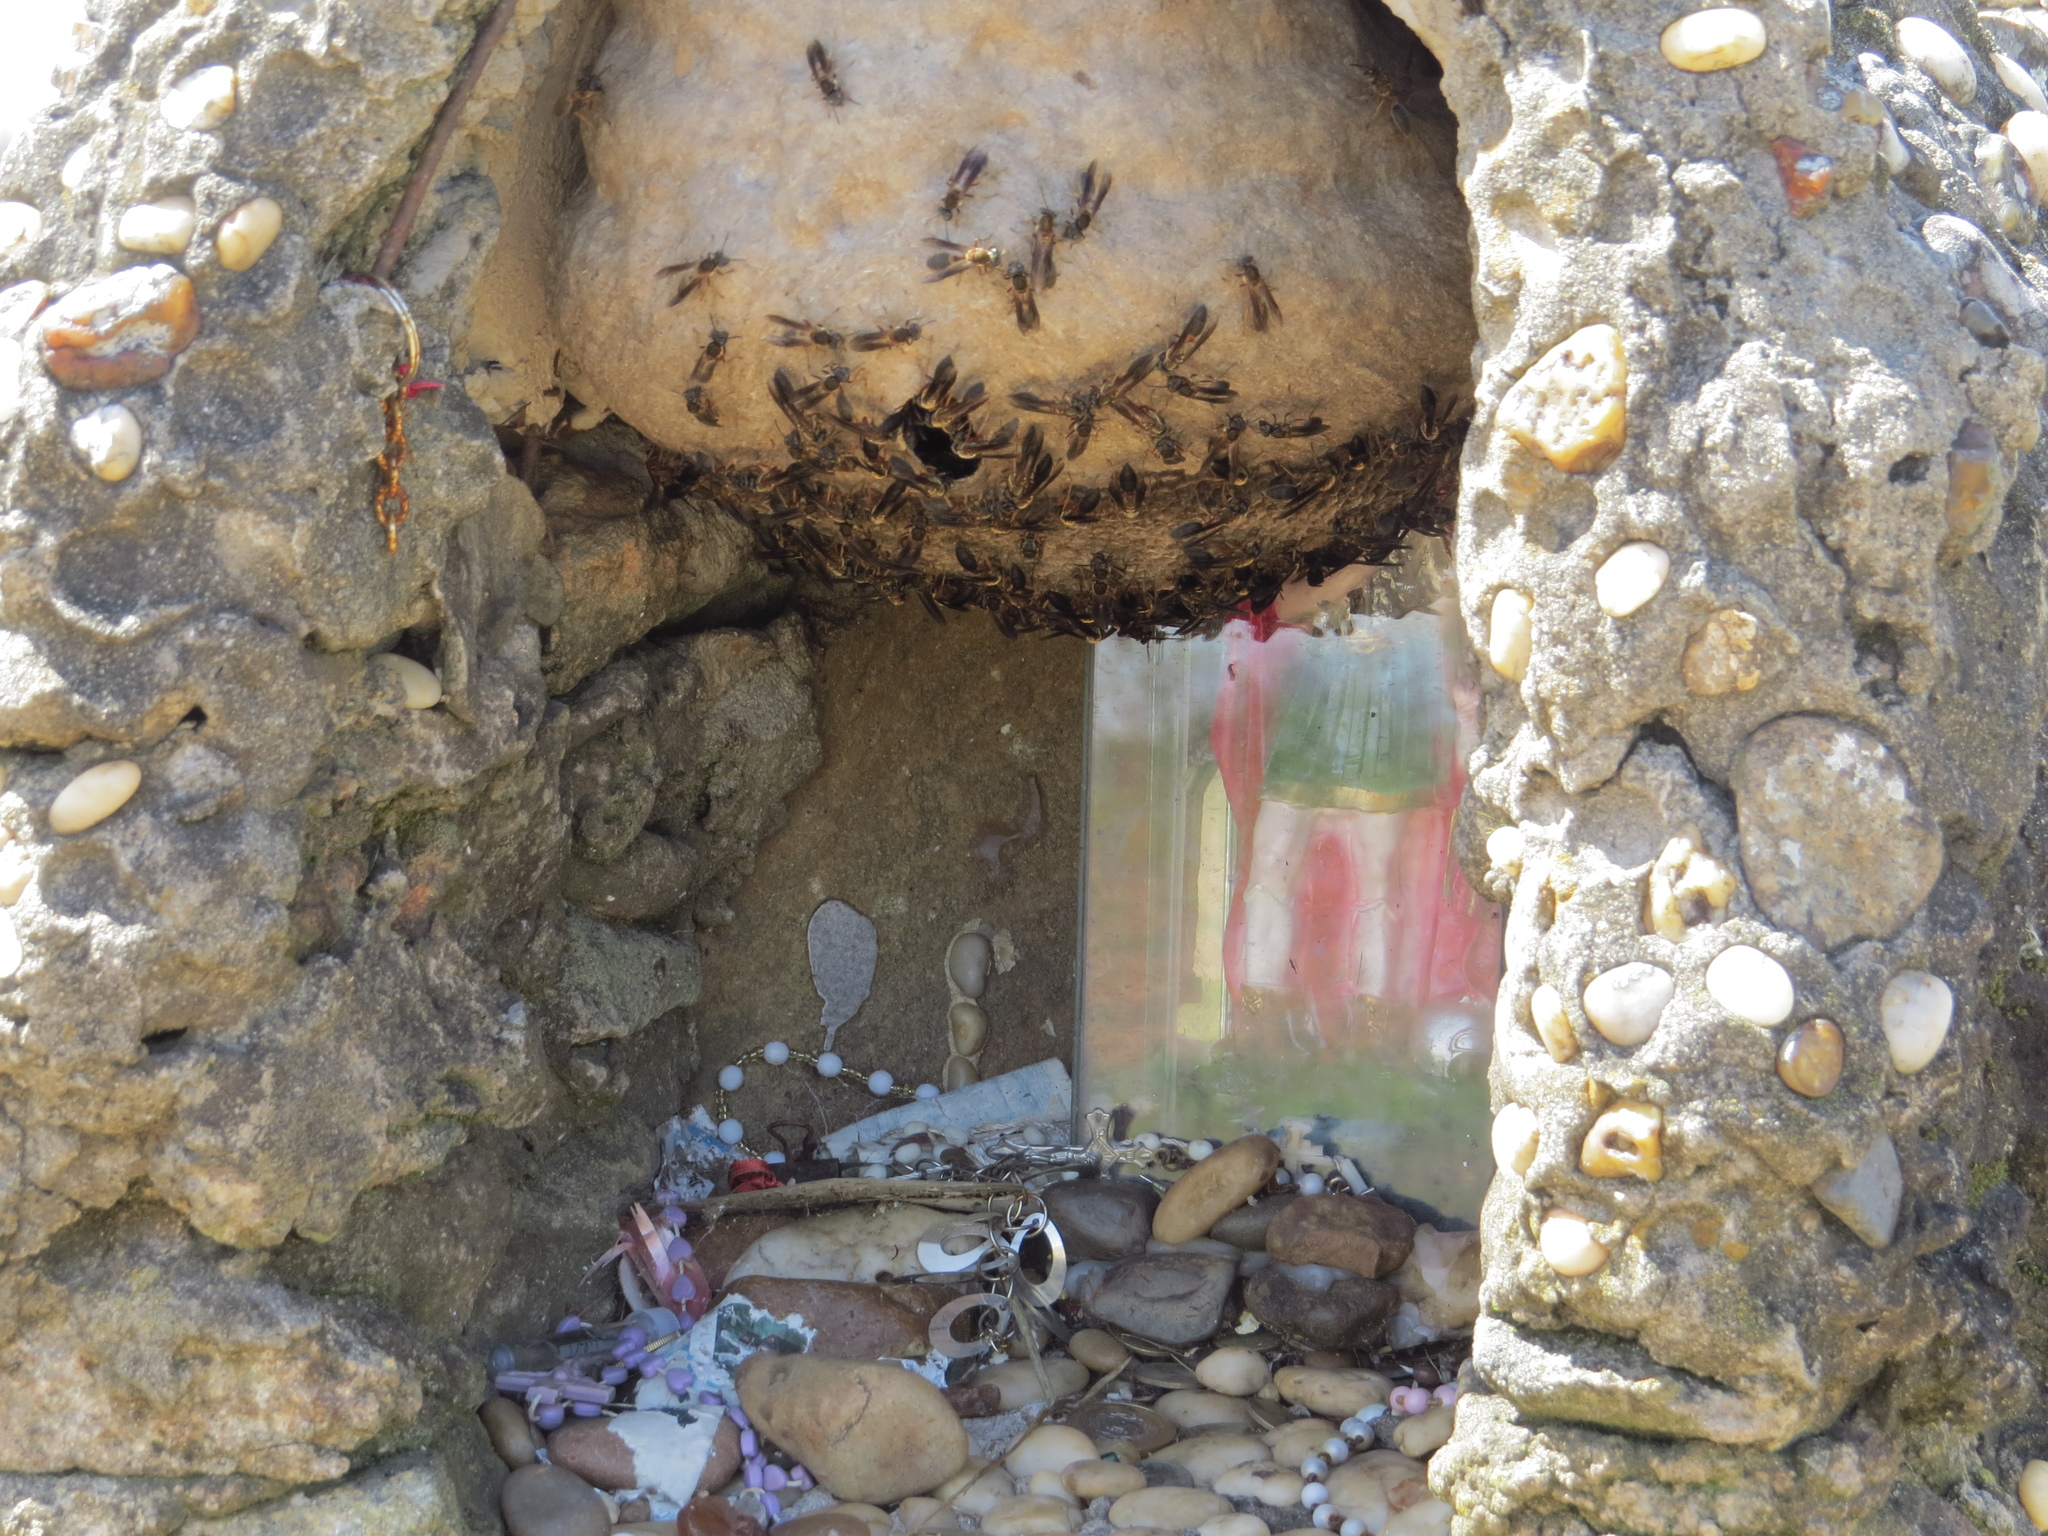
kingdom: Animalia
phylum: Arthropoda
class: Insecta
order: Hymenoptera
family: Eumenidae
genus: Polybia
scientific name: Polybia sericea
